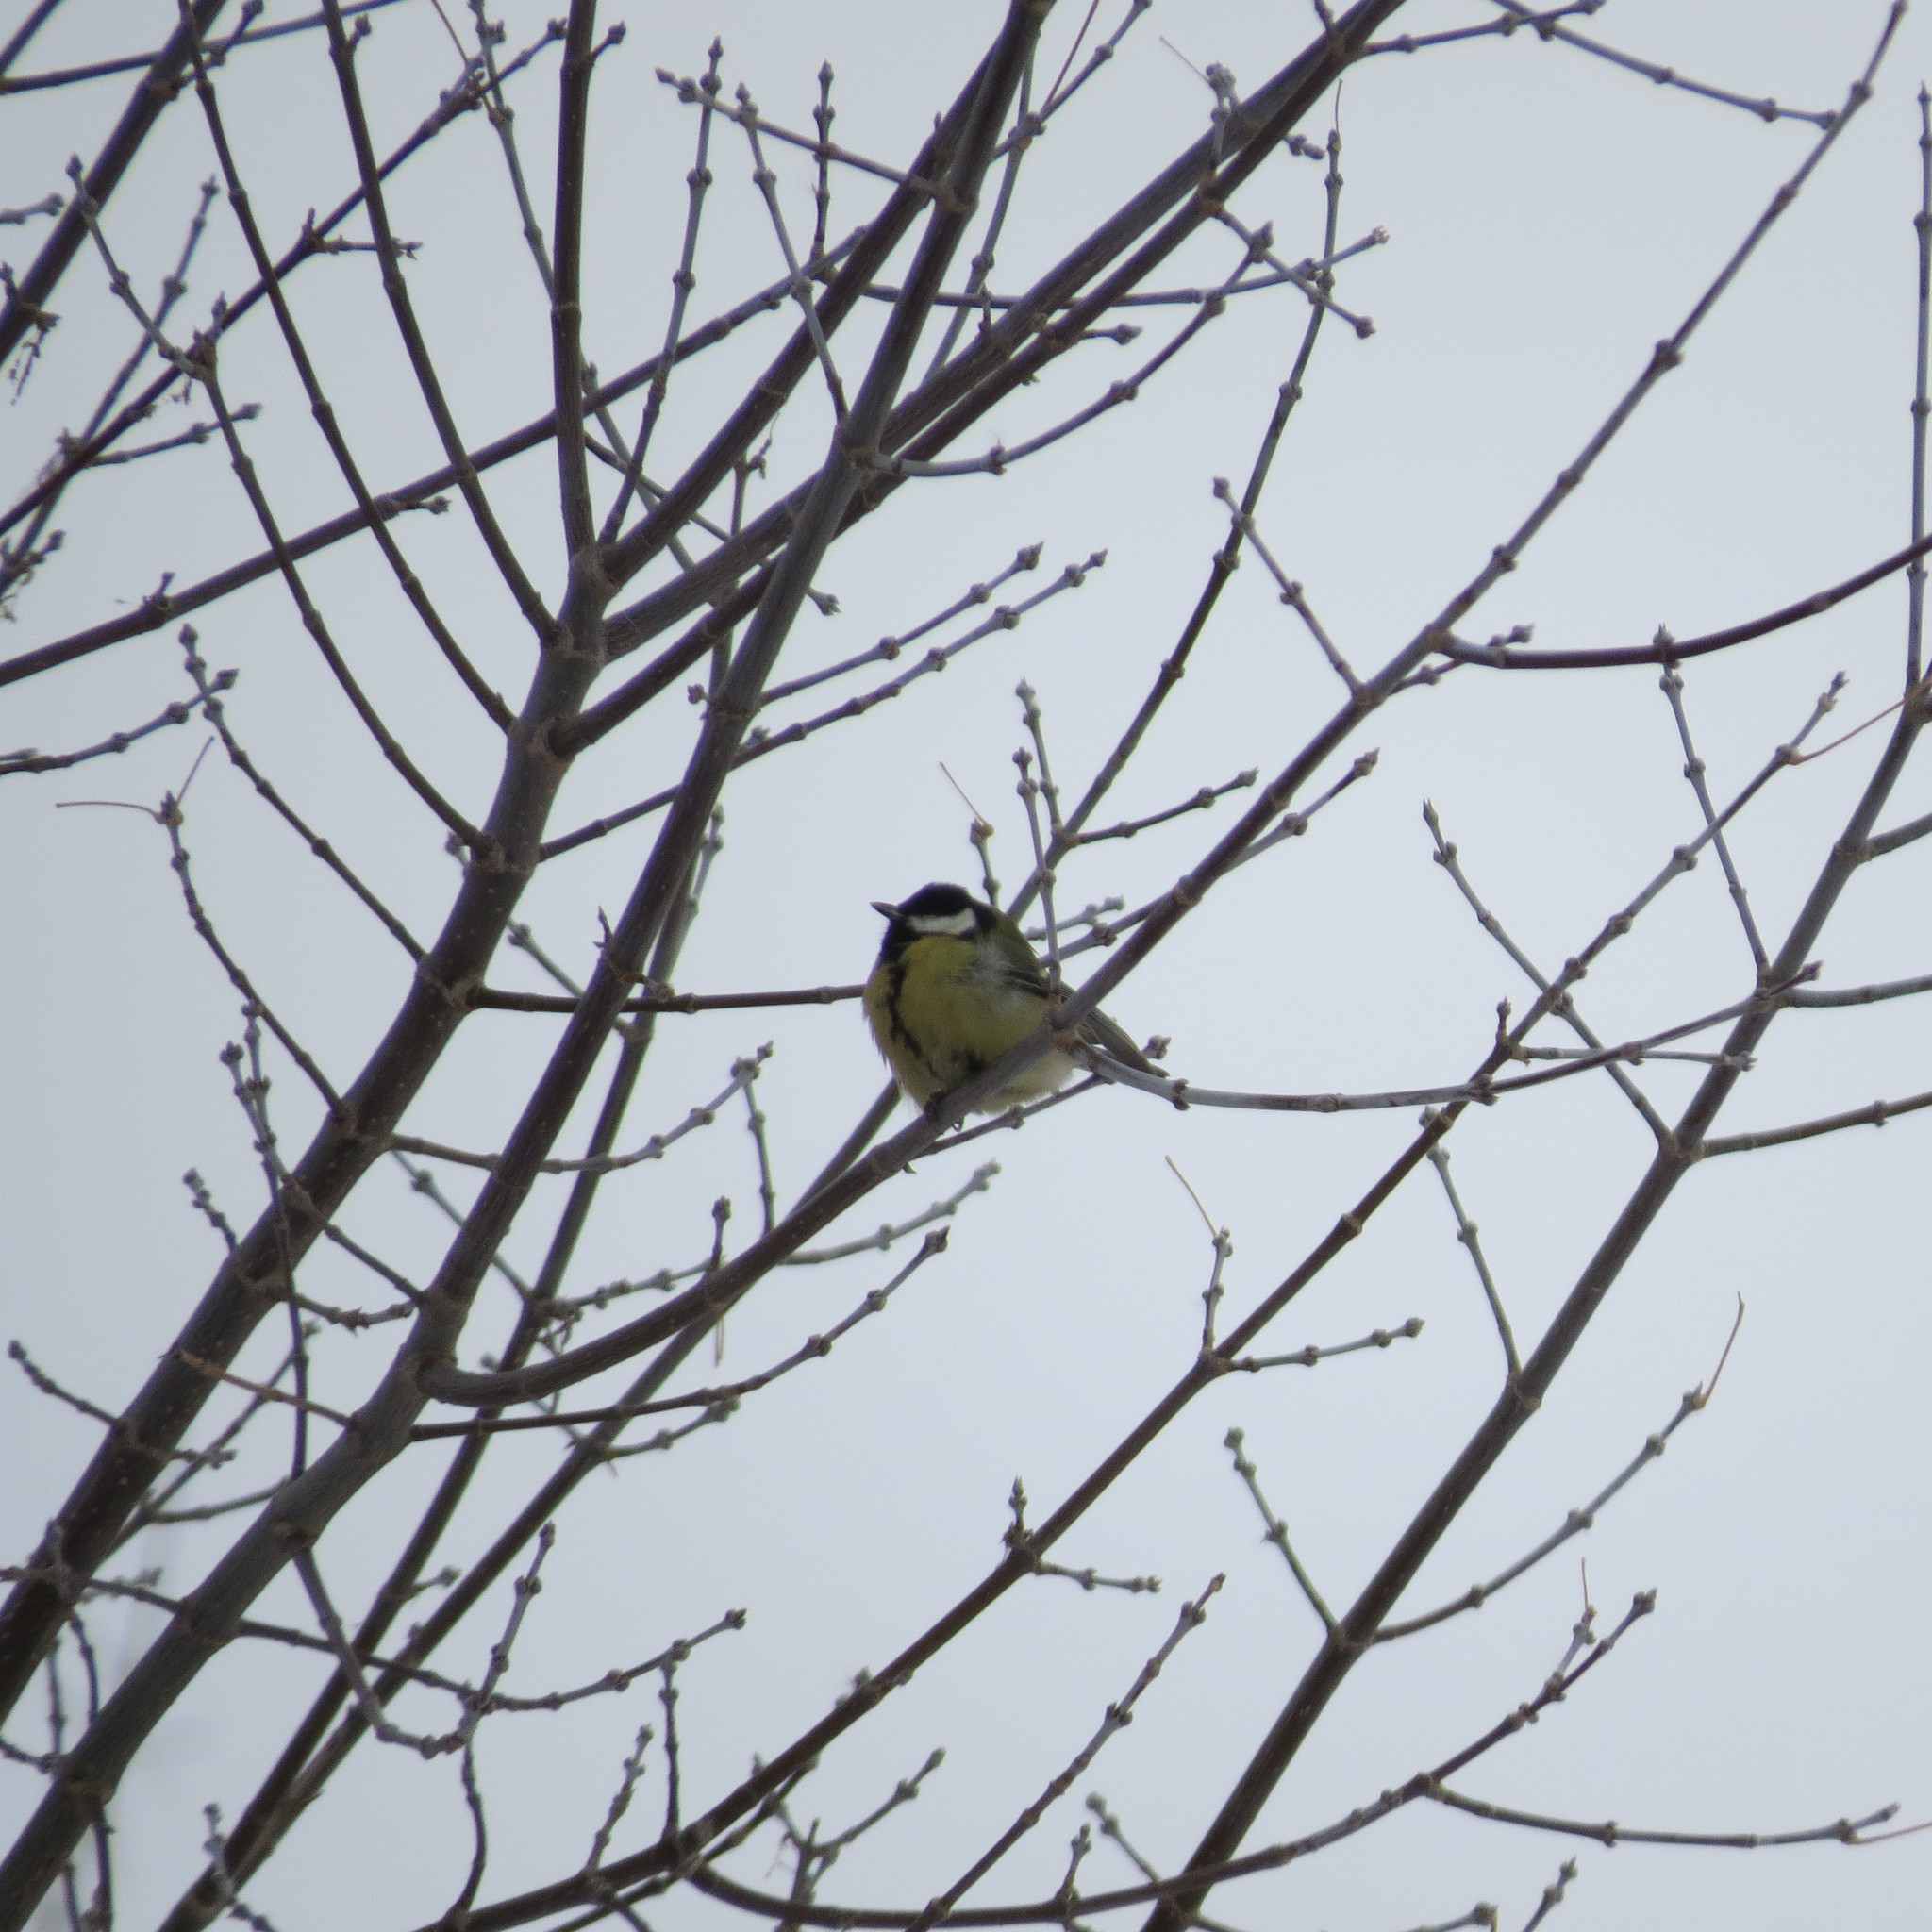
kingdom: Animalia
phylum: Chordata
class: Aves
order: Passeriformes
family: Paridae
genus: Parus
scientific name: Parus major
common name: Great tit
